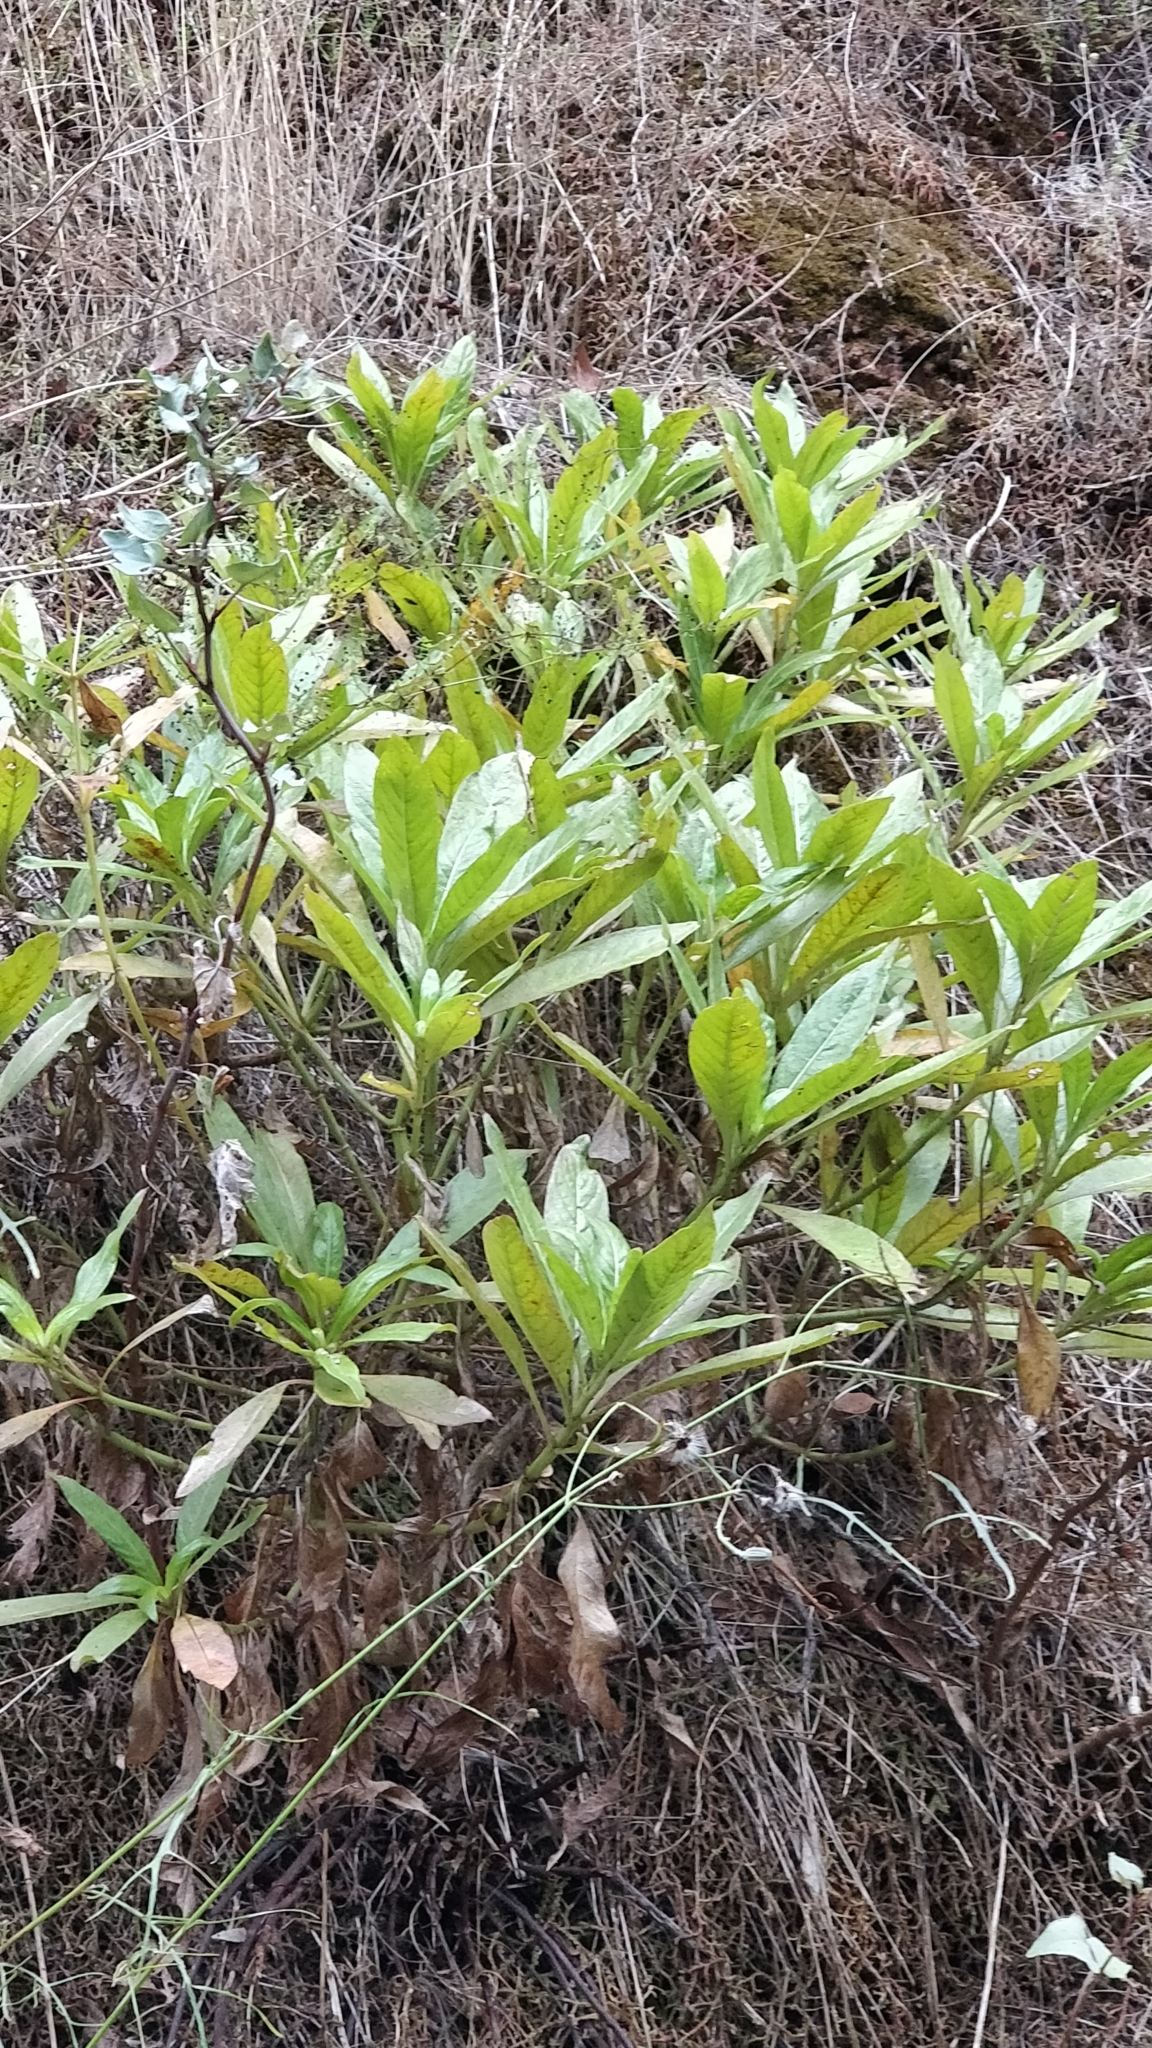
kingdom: Plantae
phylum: Tracheophyta
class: Magnoliopsida
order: Gentianales
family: Rubiaceae
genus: Phyllis
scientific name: Phyllis nobla
